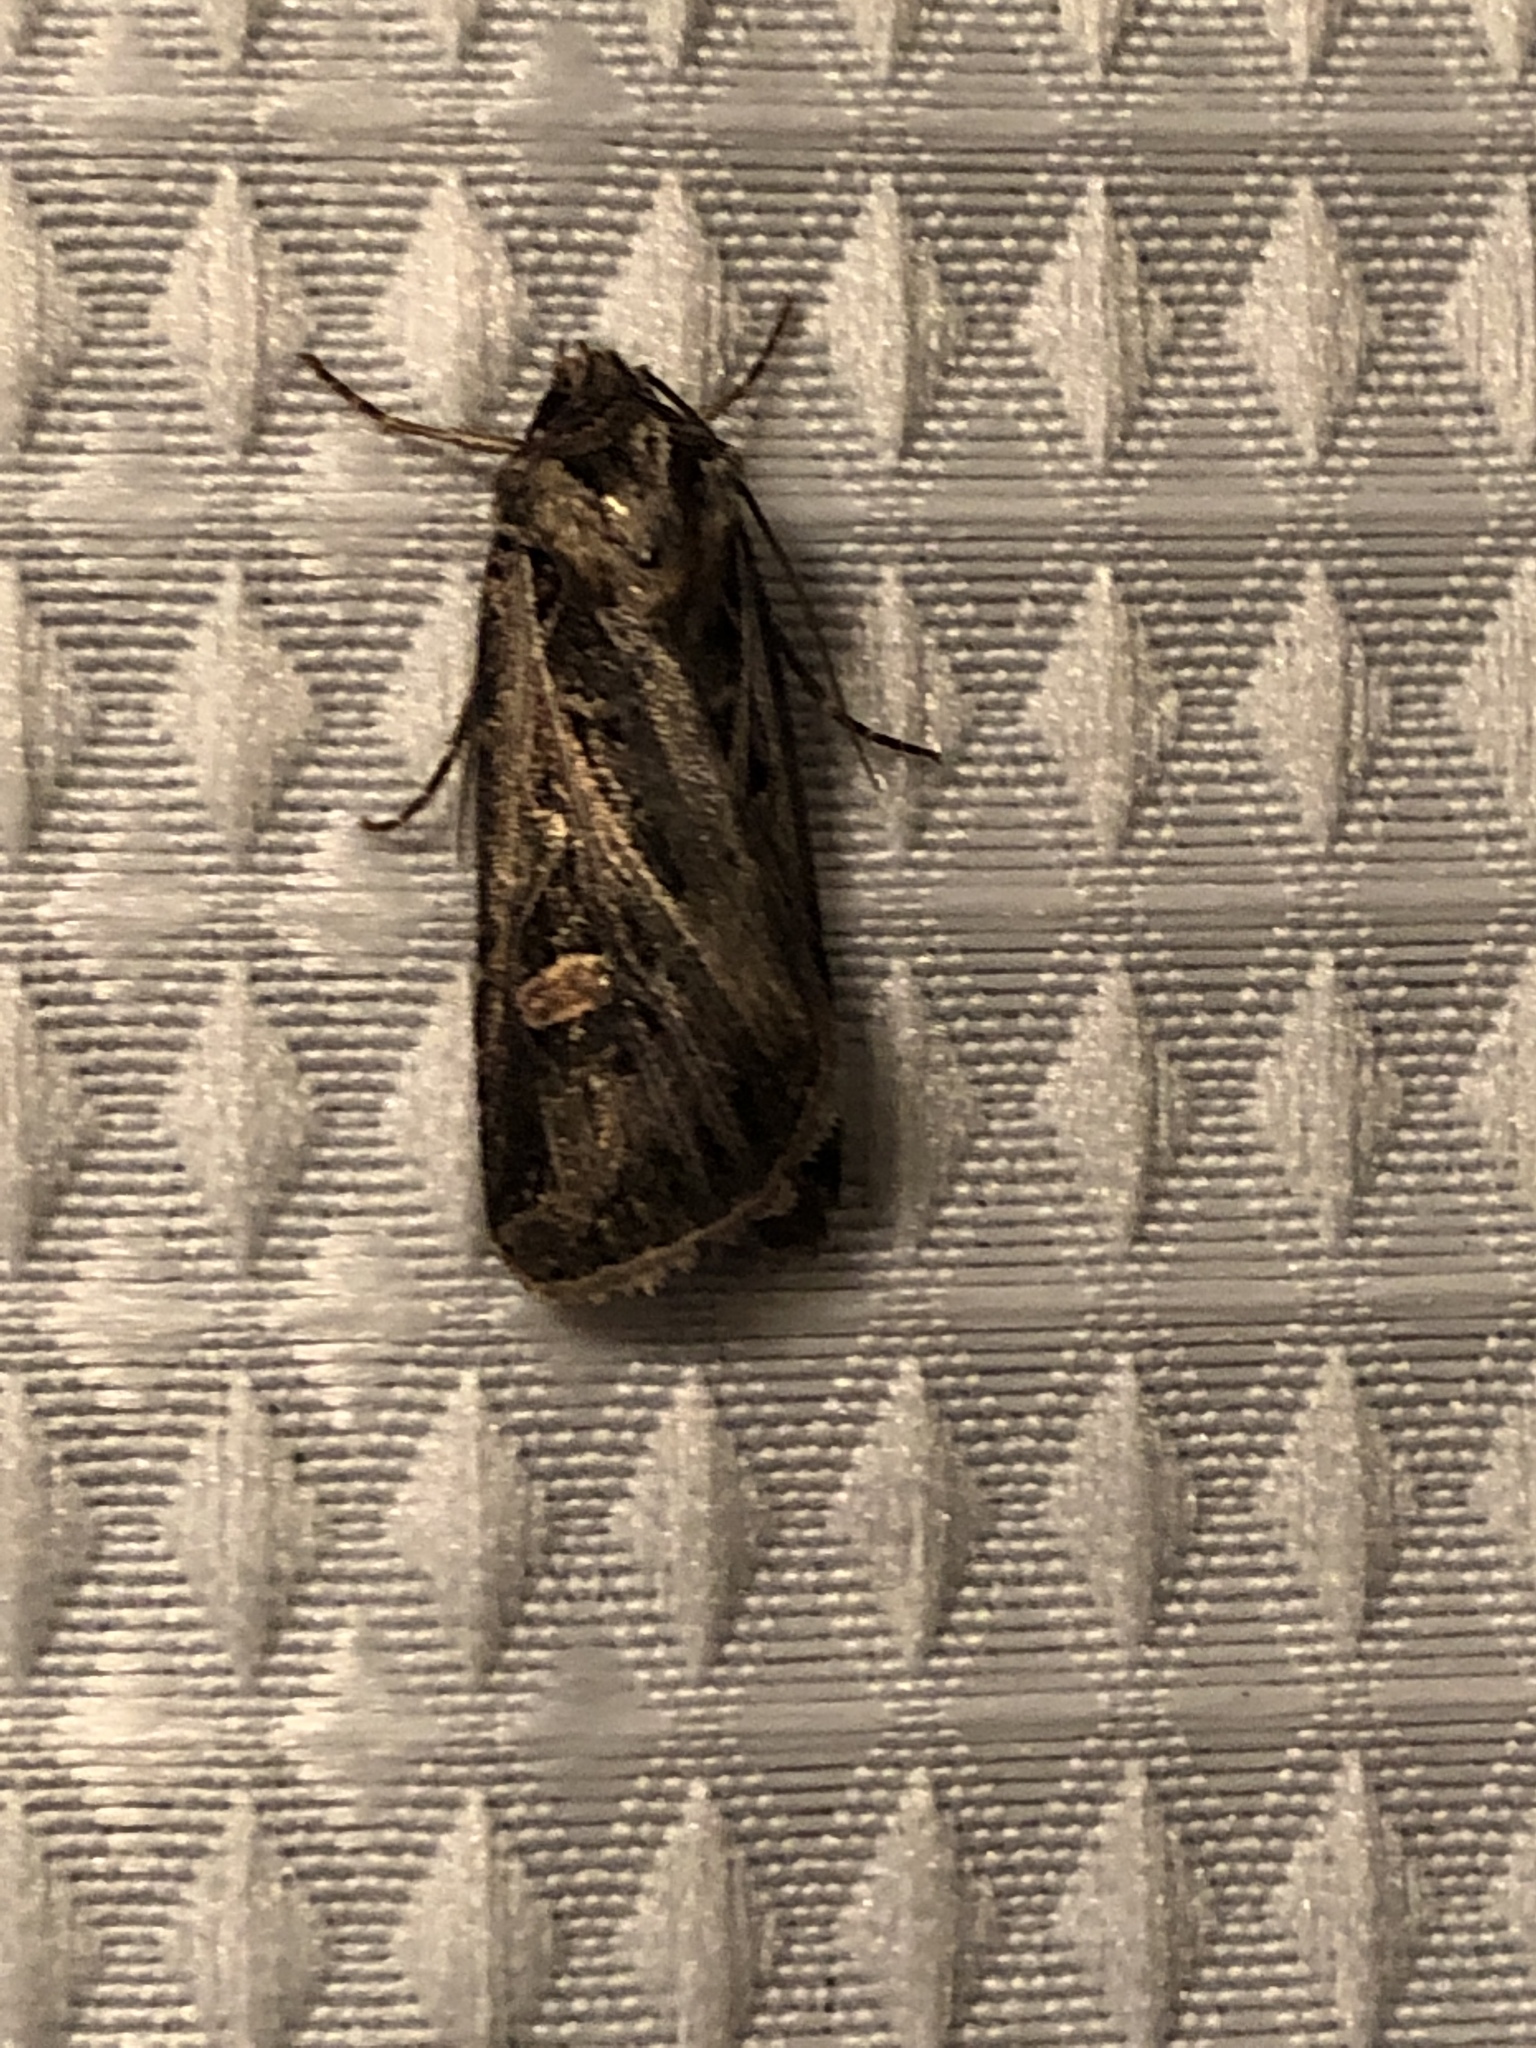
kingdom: Animalia
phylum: Arthropoda
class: Insecta
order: Lepidoptera
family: Noctuidae
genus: Feltia
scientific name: Feltia jaculifera
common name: Dingy cutworm moth
